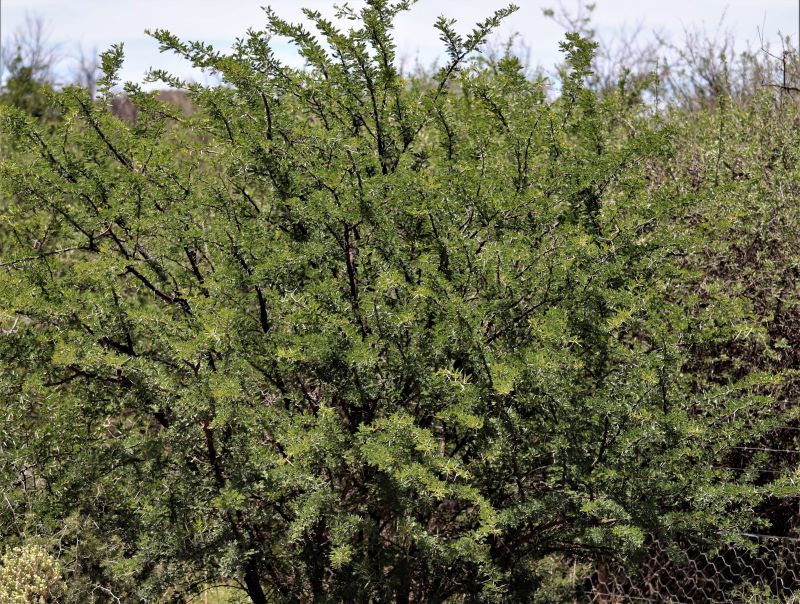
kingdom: Plantae
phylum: Tracheophyta
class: Magnoliopsida
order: Fabales
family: Fabaceae
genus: Vachellia
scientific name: Vachellia karroo
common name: Sweet thorn
